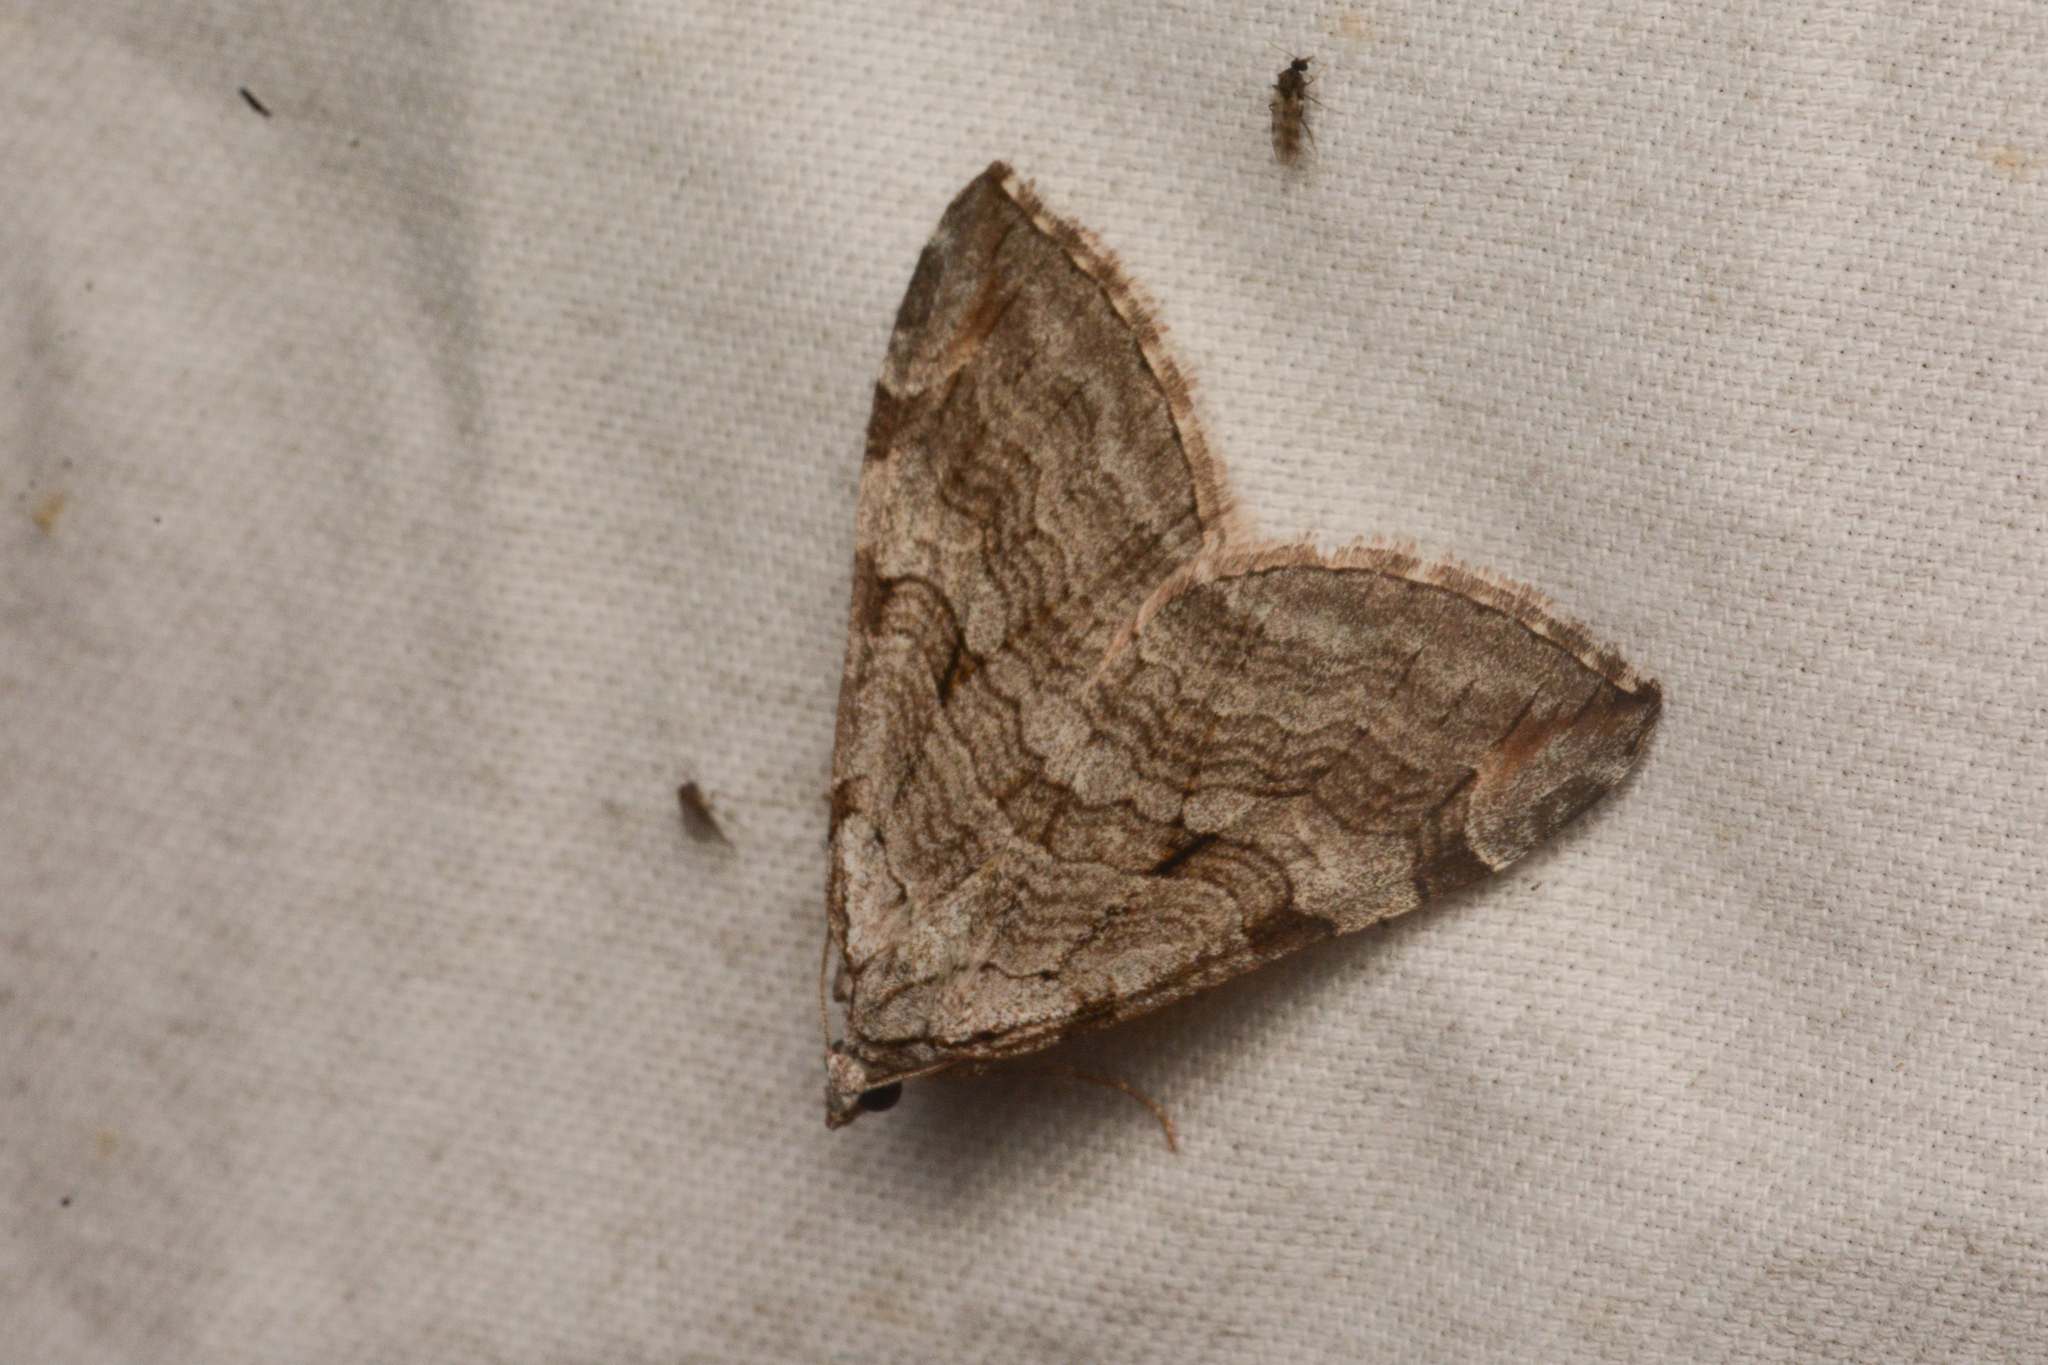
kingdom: Animalia
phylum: Arthropoda
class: Insecta
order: Lepidoptera
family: Geometridae
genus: Aplocera
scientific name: Aplocera plagiata
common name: Treble-bar
